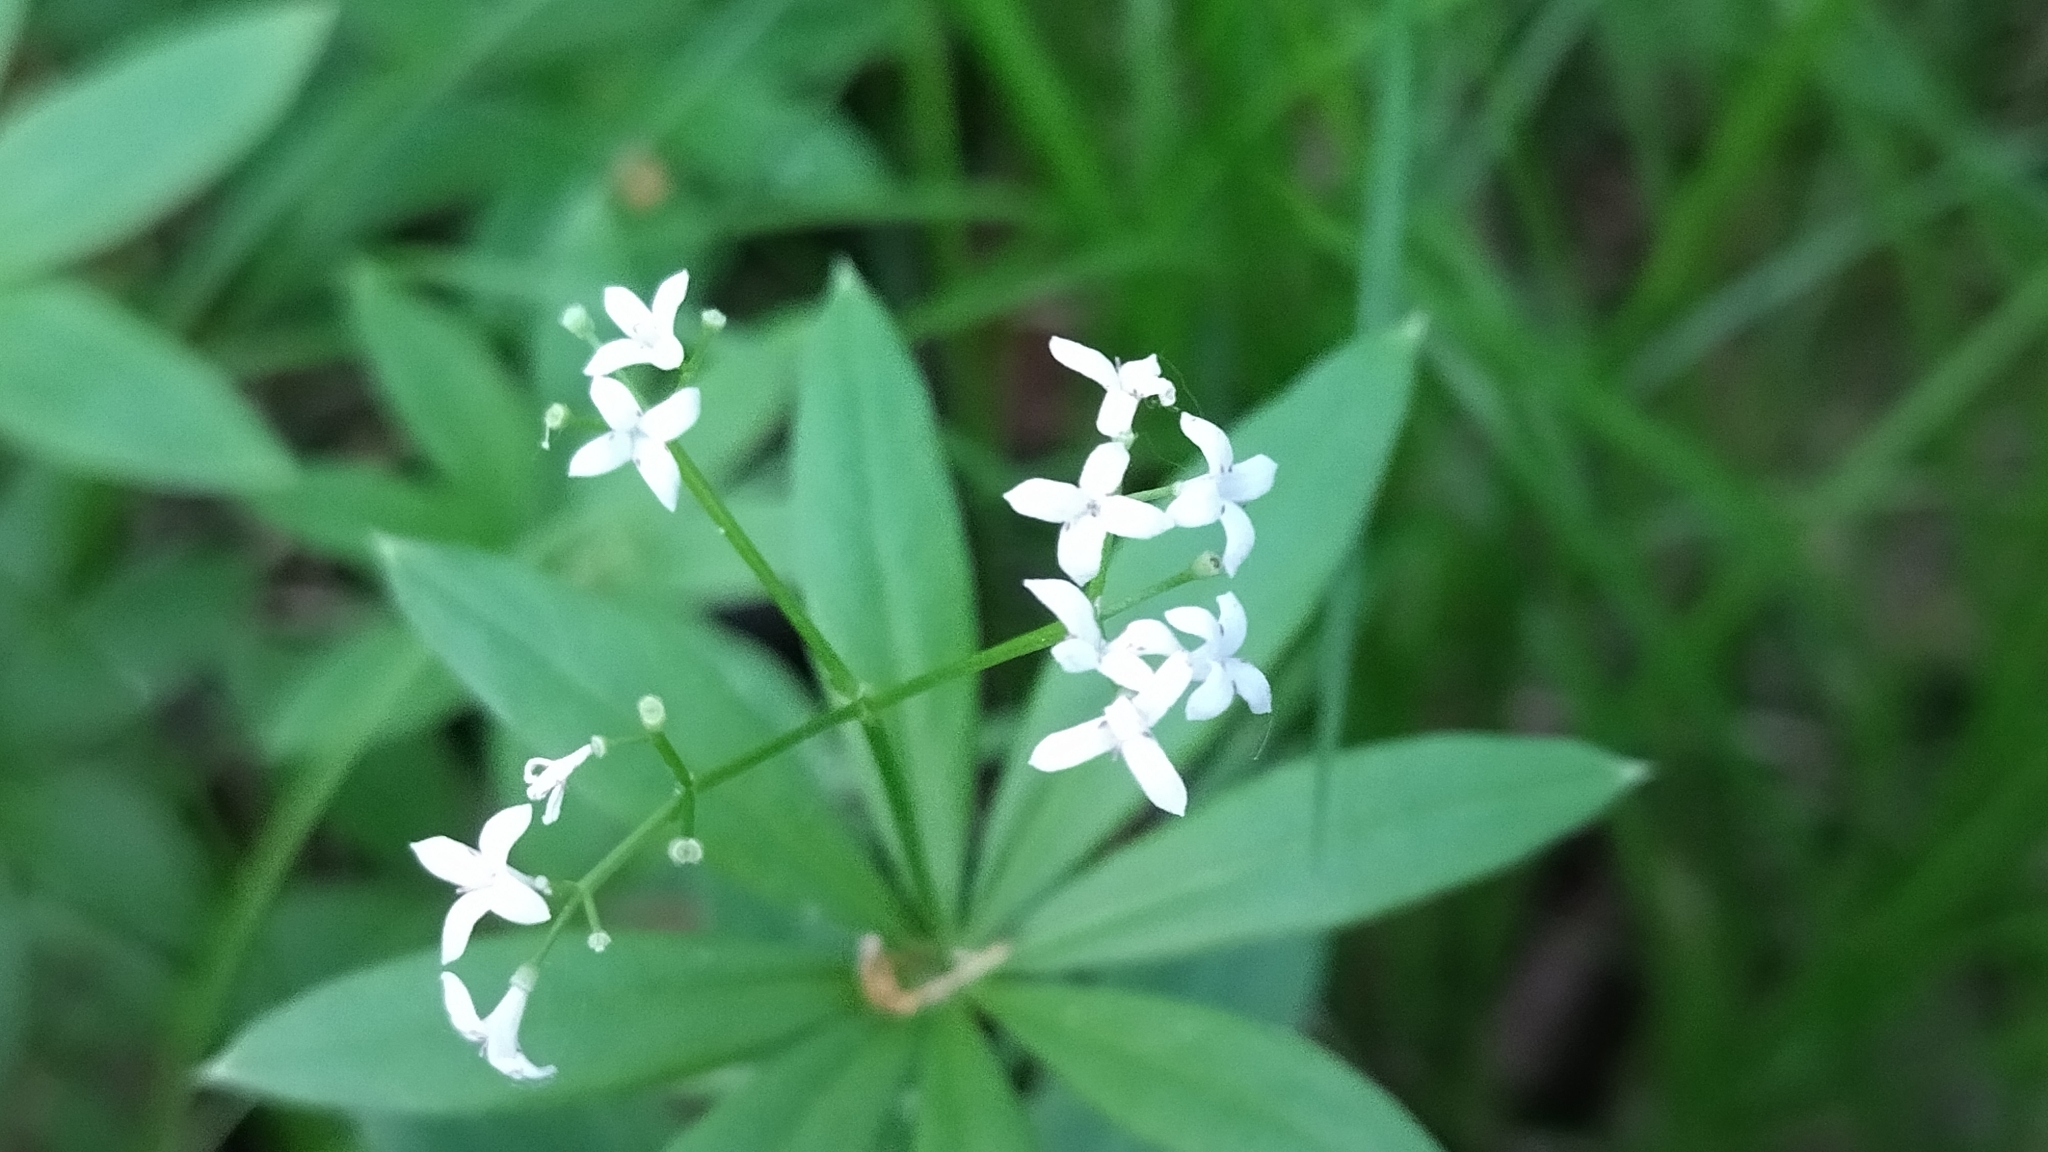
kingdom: Plantae
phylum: Tracheophyta
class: Magnoliopsida
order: Gentianales
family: Rubiaceae
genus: Galium
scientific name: Galium odoratum
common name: Sweet woodruff
